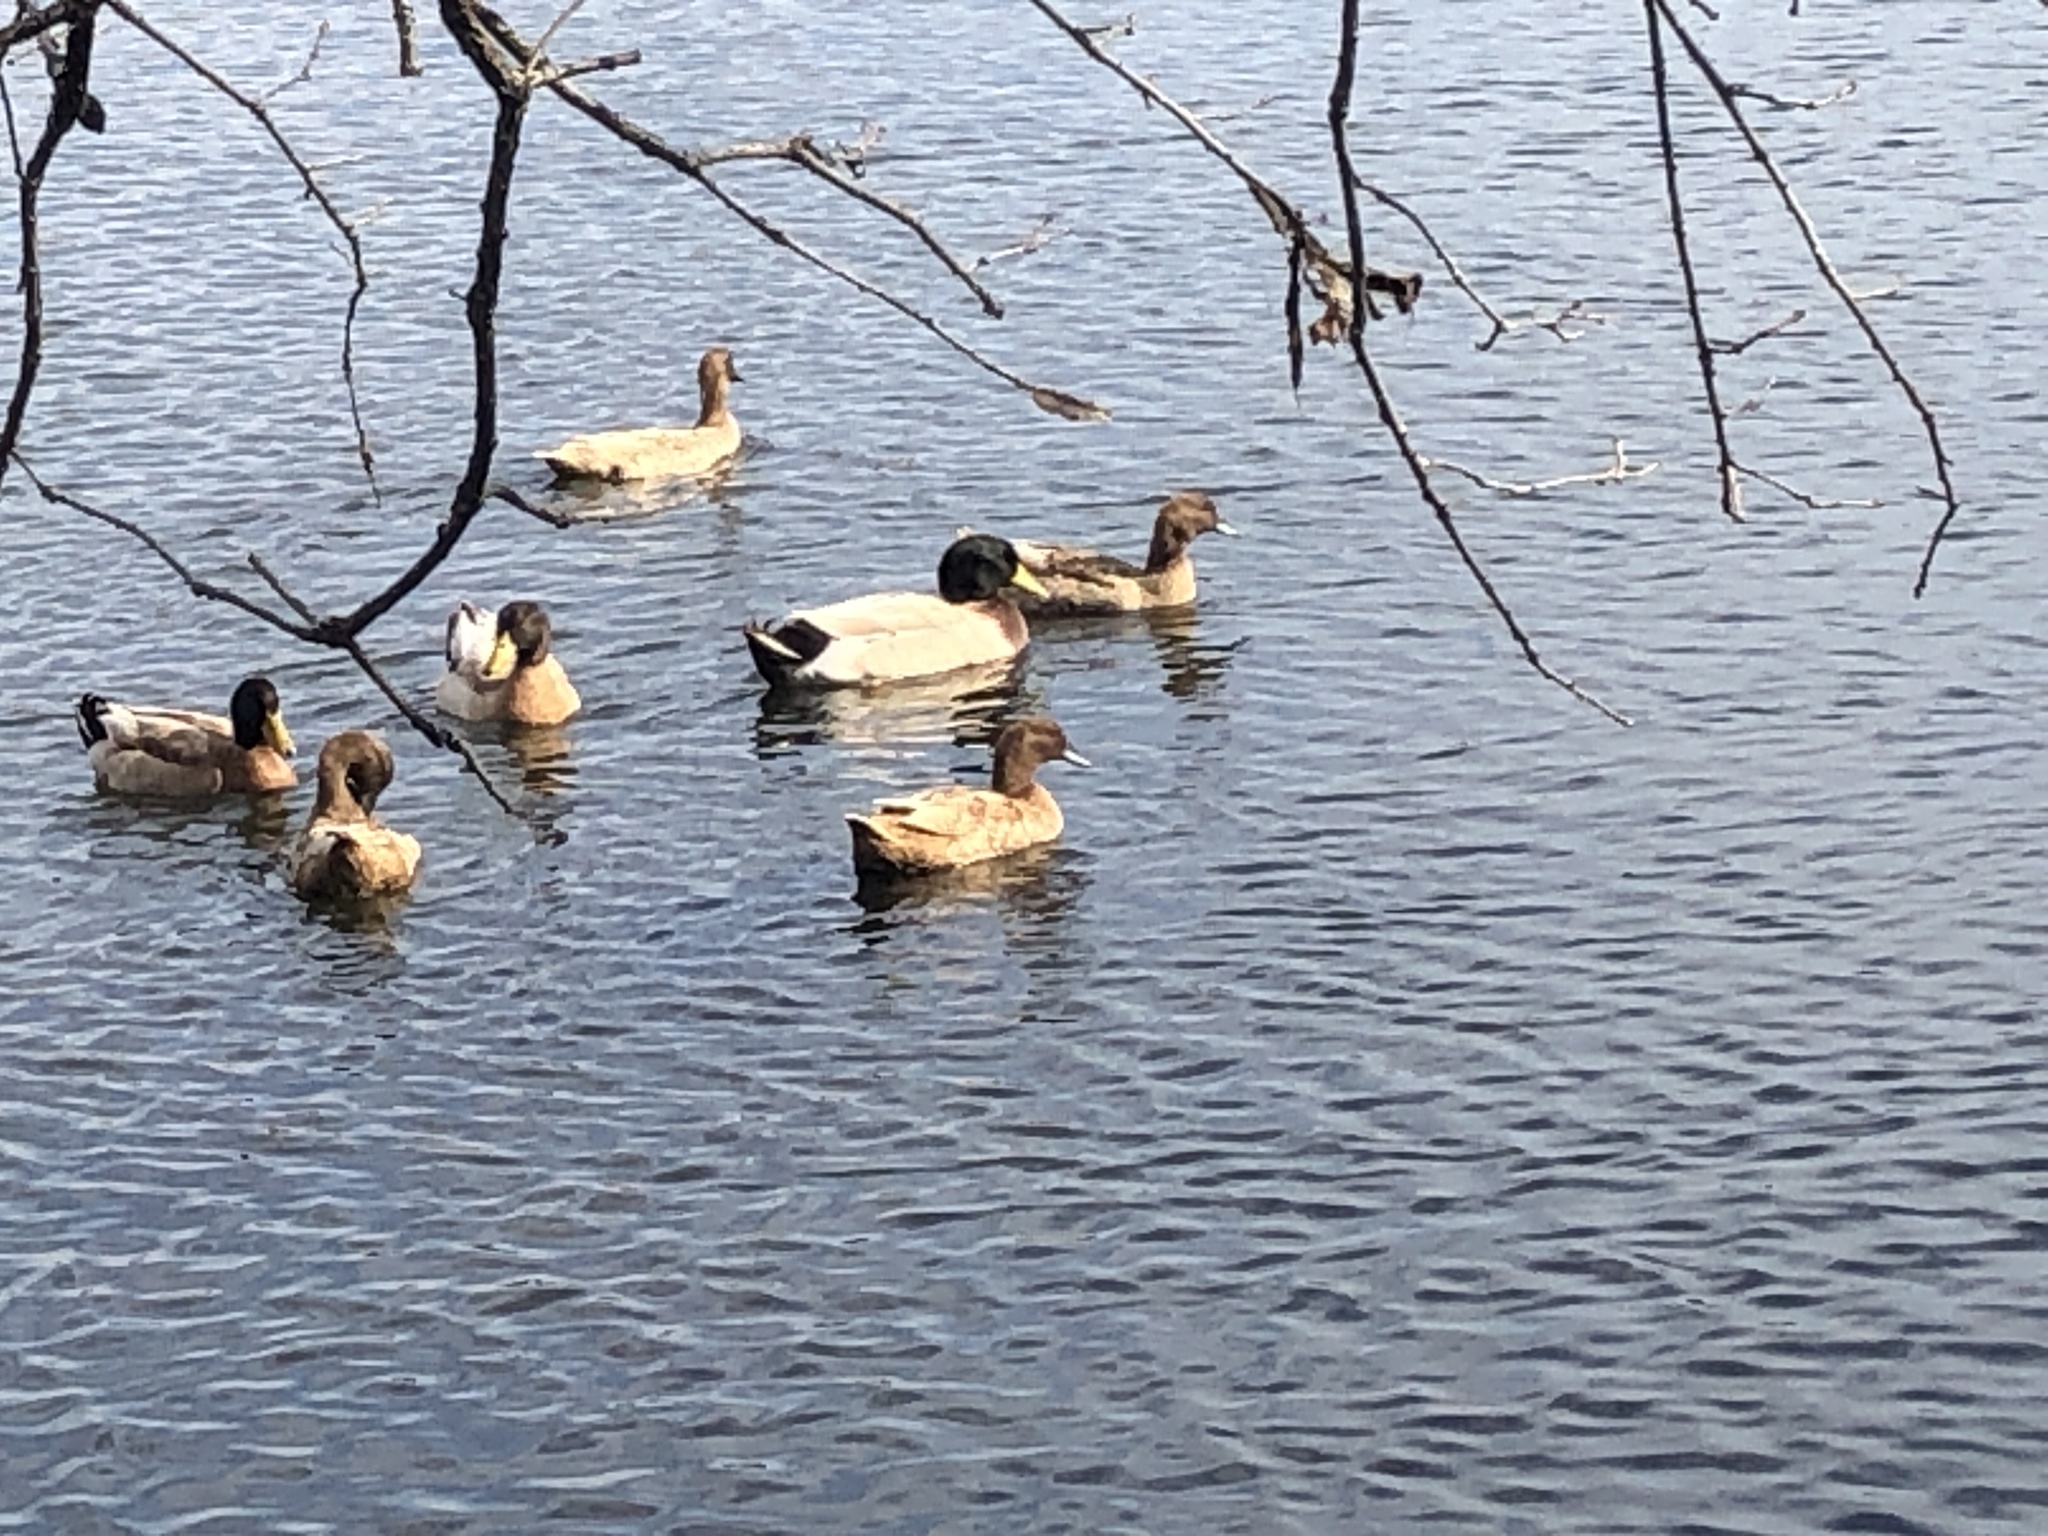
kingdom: Animalia
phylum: Chordata
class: Aves
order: Anseriformes
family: Anatidae
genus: Anas
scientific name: Anas platyrhynchos
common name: Mallard
